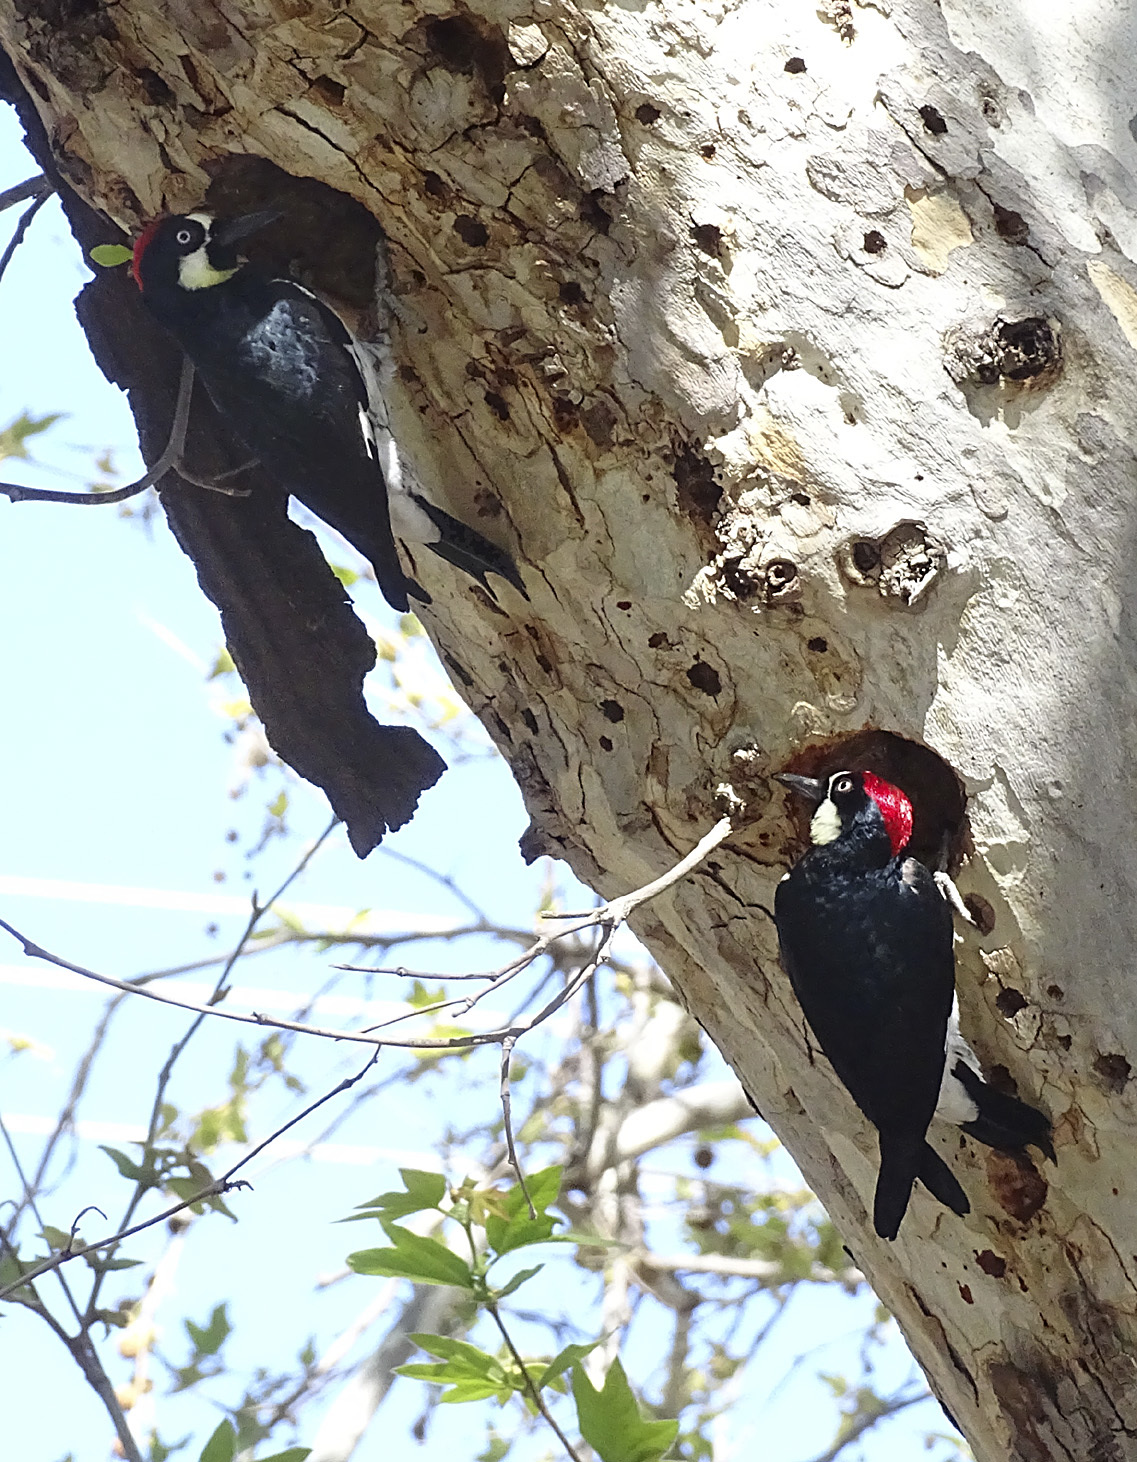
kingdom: Animalia
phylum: Chordata
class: Aves
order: Piciformes
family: Picidae
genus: Melanerpes
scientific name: Melanerpes formicivorus
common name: Acorn woodpecker
